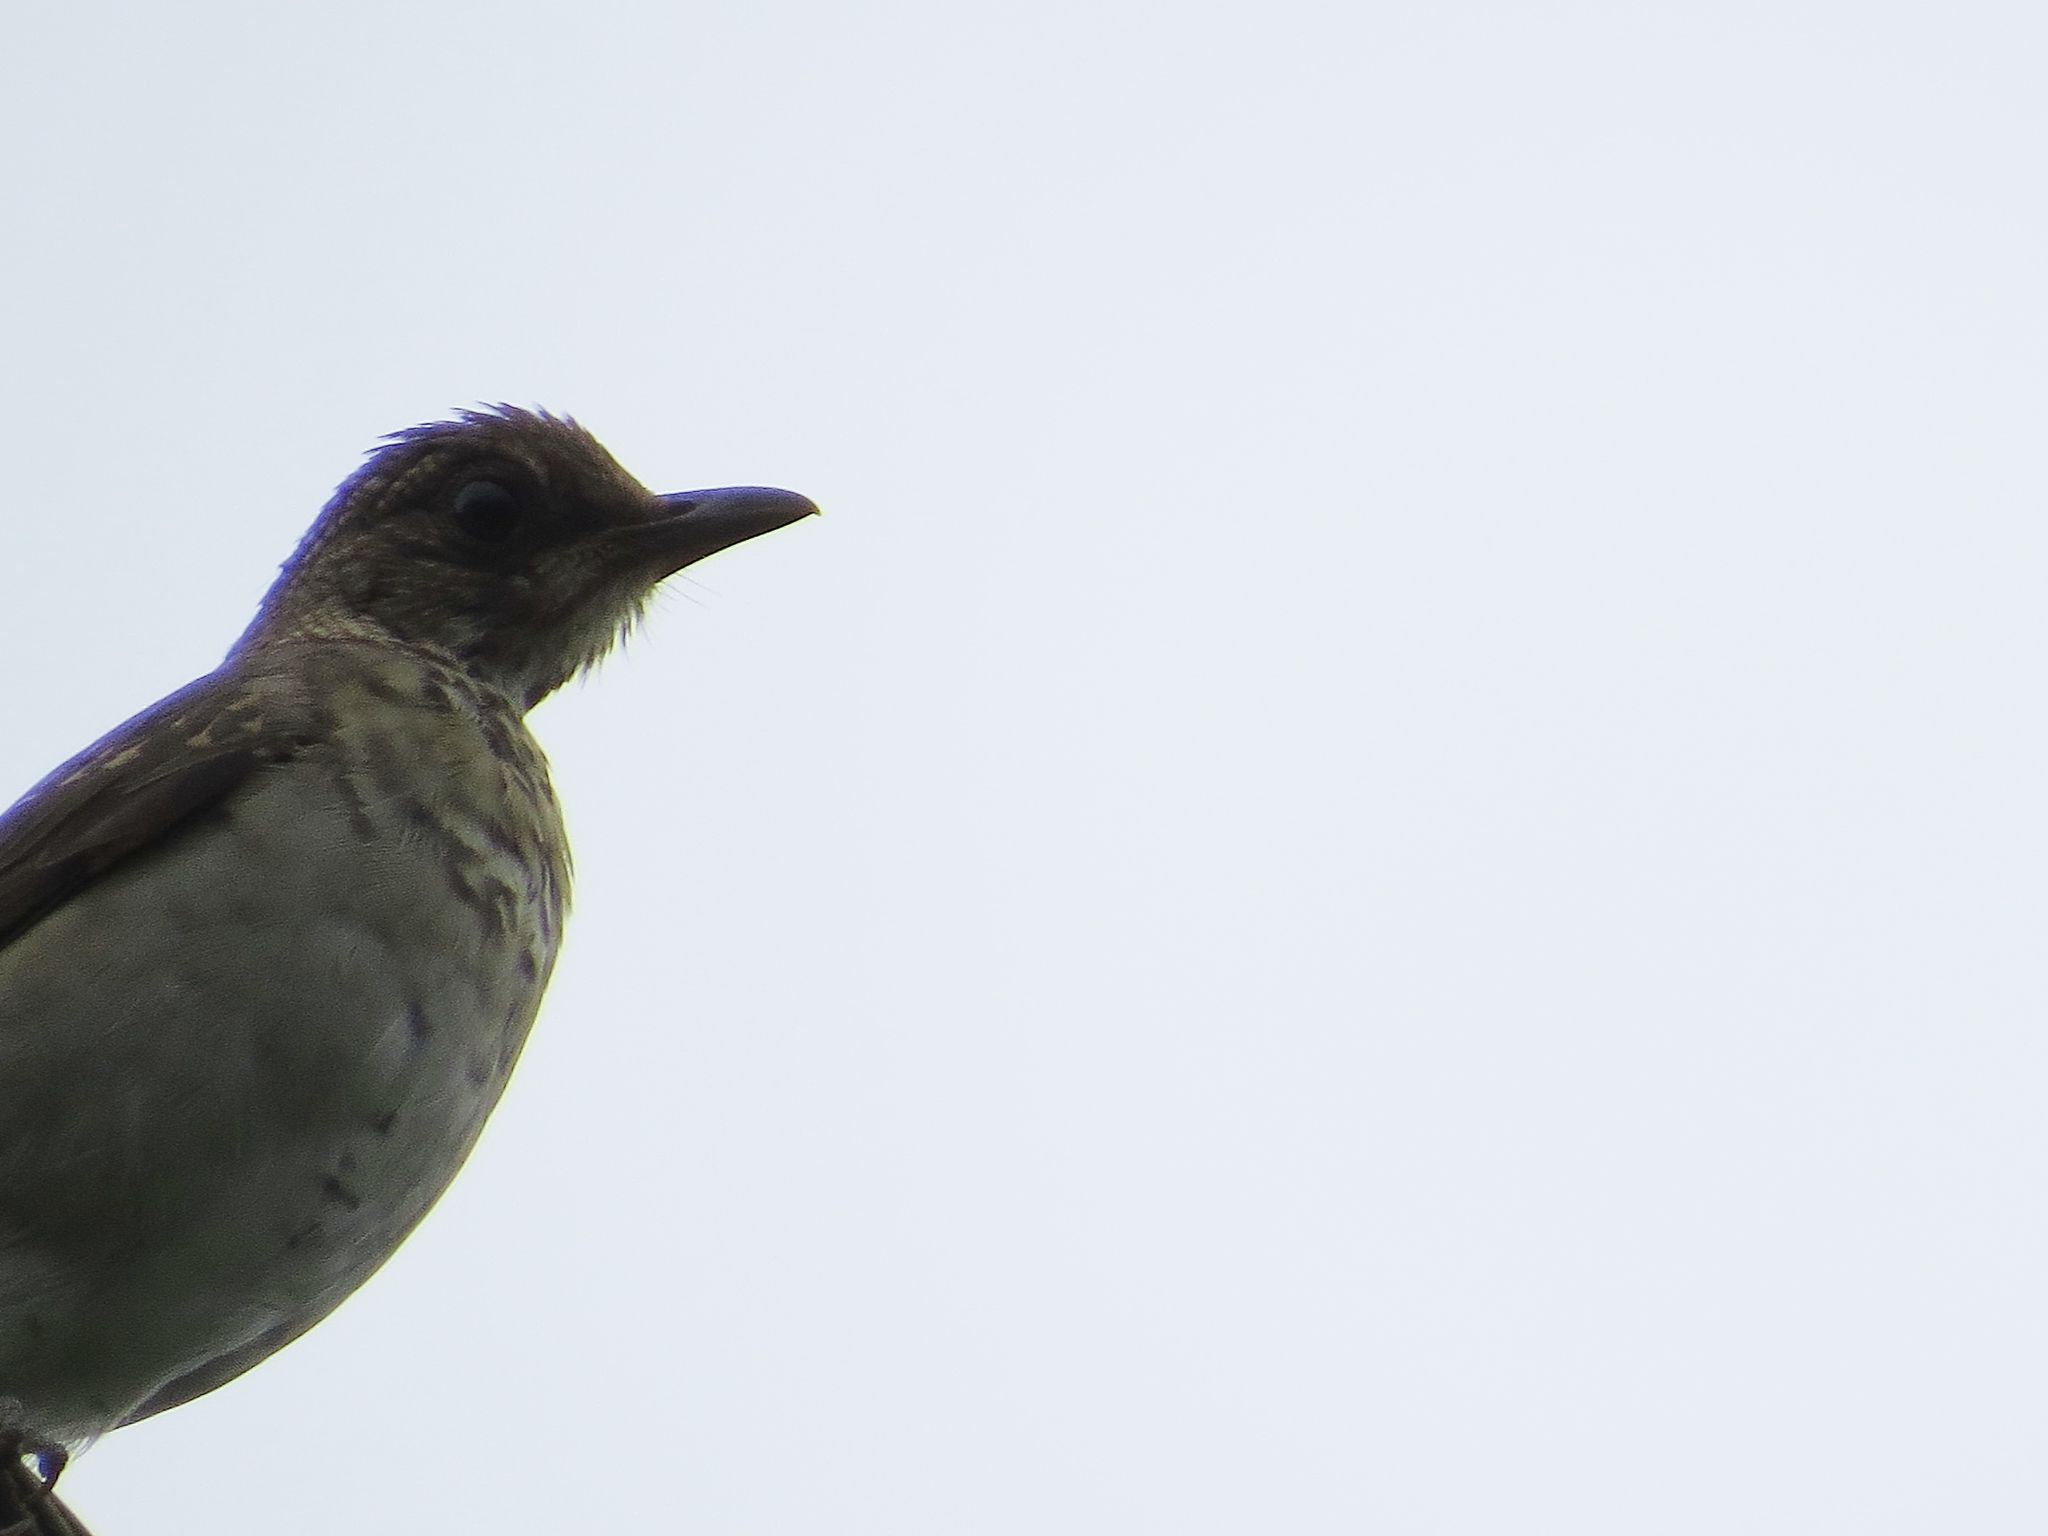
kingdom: Animalia
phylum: Chordata
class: Aves
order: Passeriformes
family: Turdidae
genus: Turdus
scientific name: Turdus amaurochalinus
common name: Creamy-bellied thrush
